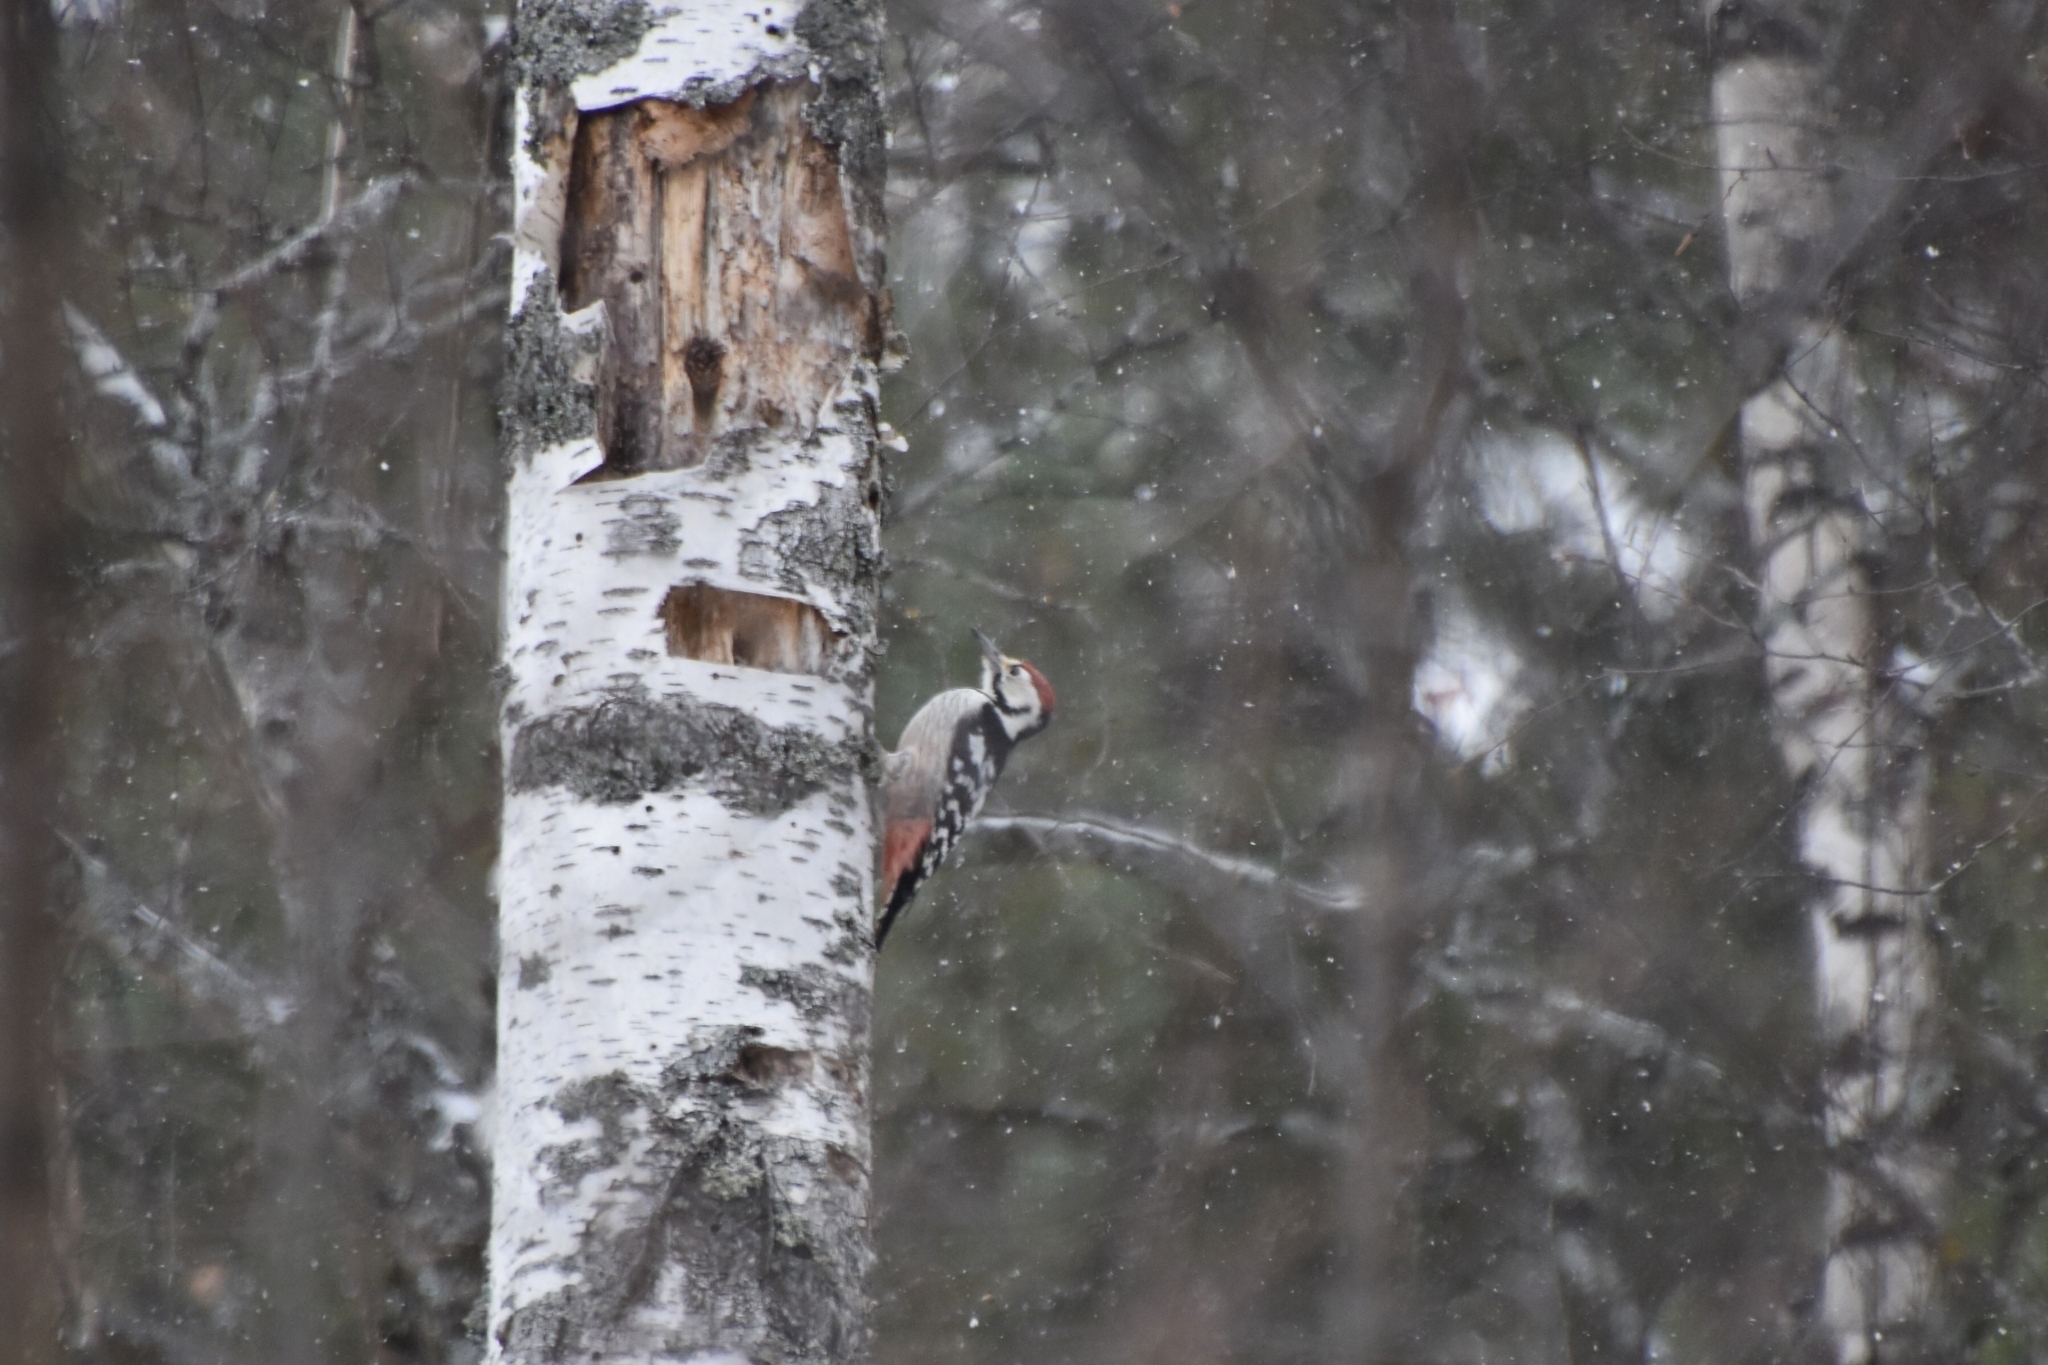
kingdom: Animalia
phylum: Chordata
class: Aves
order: Piciformes
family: Picidae
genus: Dendrocopos
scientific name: Dendrocopos leucotos
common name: White-backed woodpecker
